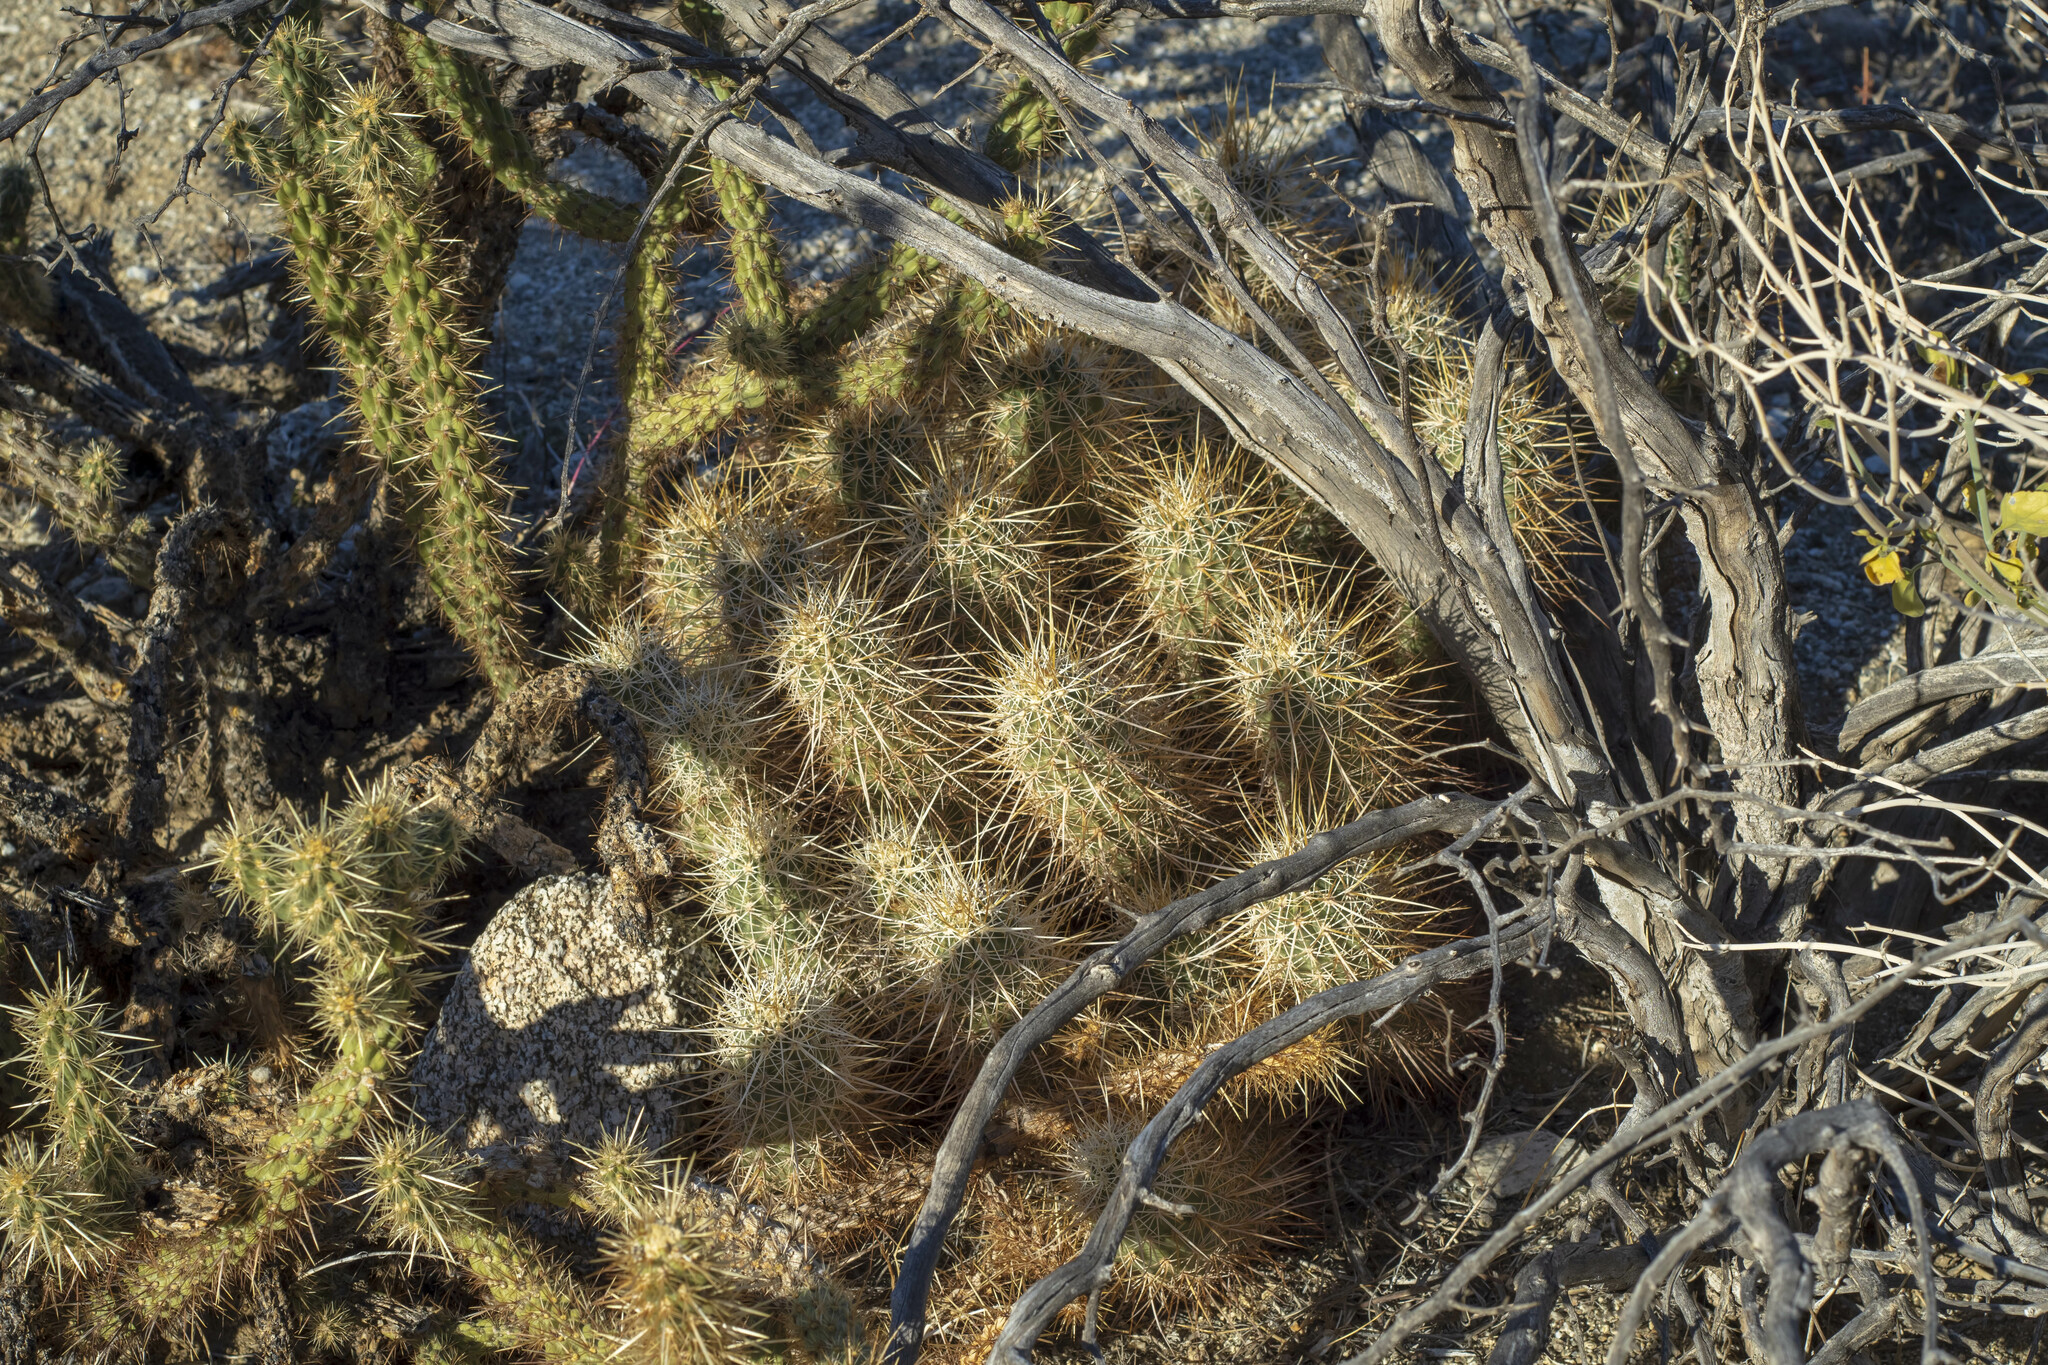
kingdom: Plantae
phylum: Tracheophyta
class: Magnoliopsida
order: Caryophyllales
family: Cactaceae
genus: Echinocereus
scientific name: Echinocereus engelmannii
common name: Engelmann's hedgehog cactus
